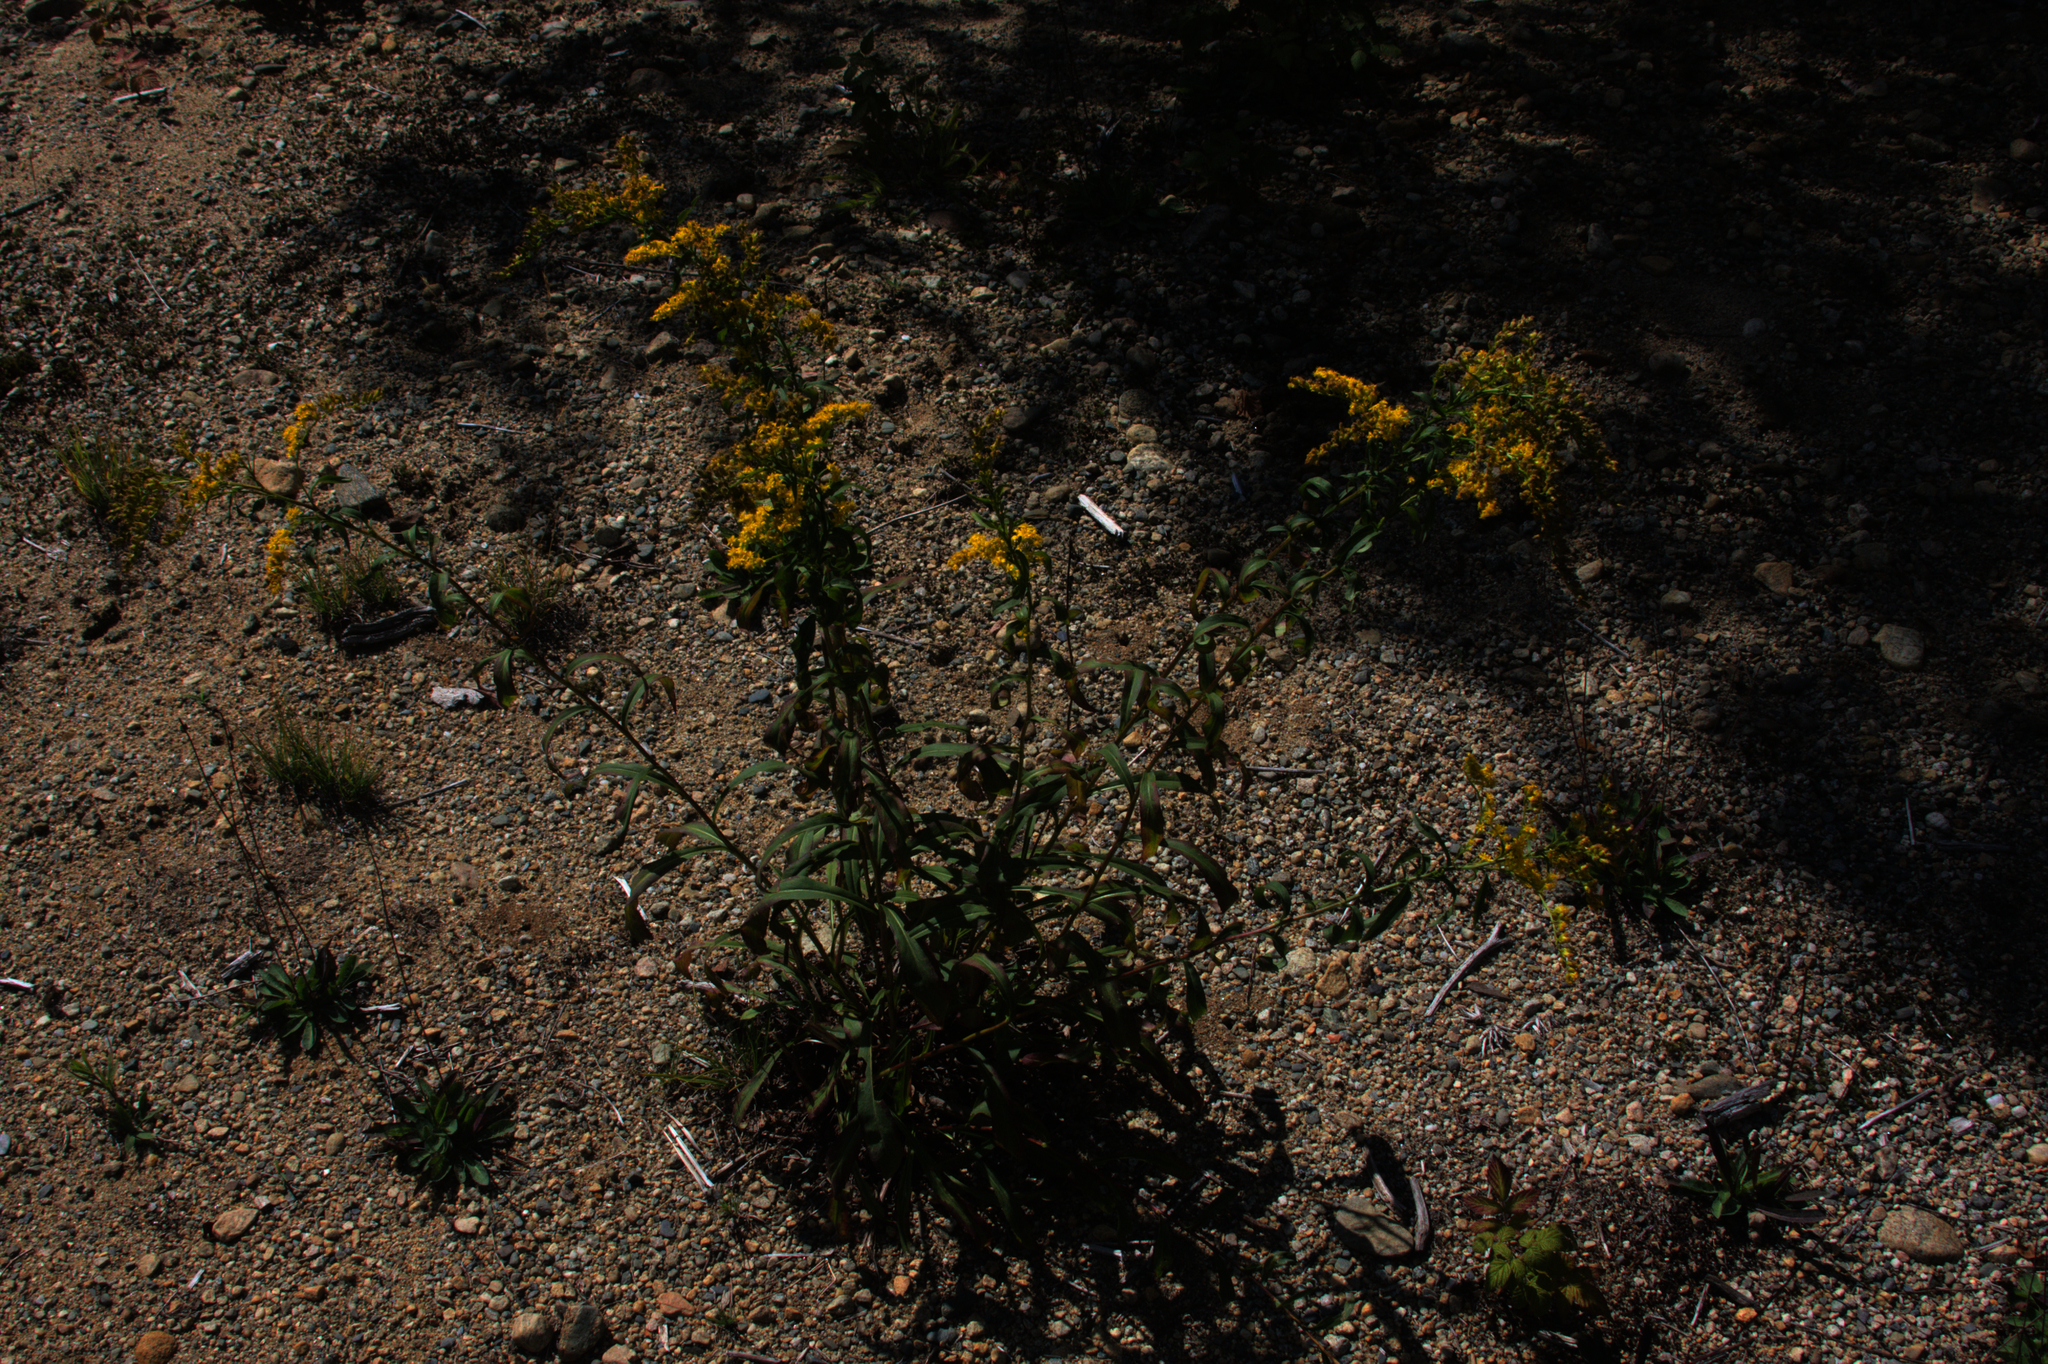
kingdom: Plantae
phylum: Tracheophyta
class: Magnoliopsida
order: Asterales
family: Asteraceae
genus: Solidago
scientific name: Solidago juncea
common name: Early goldenrod
